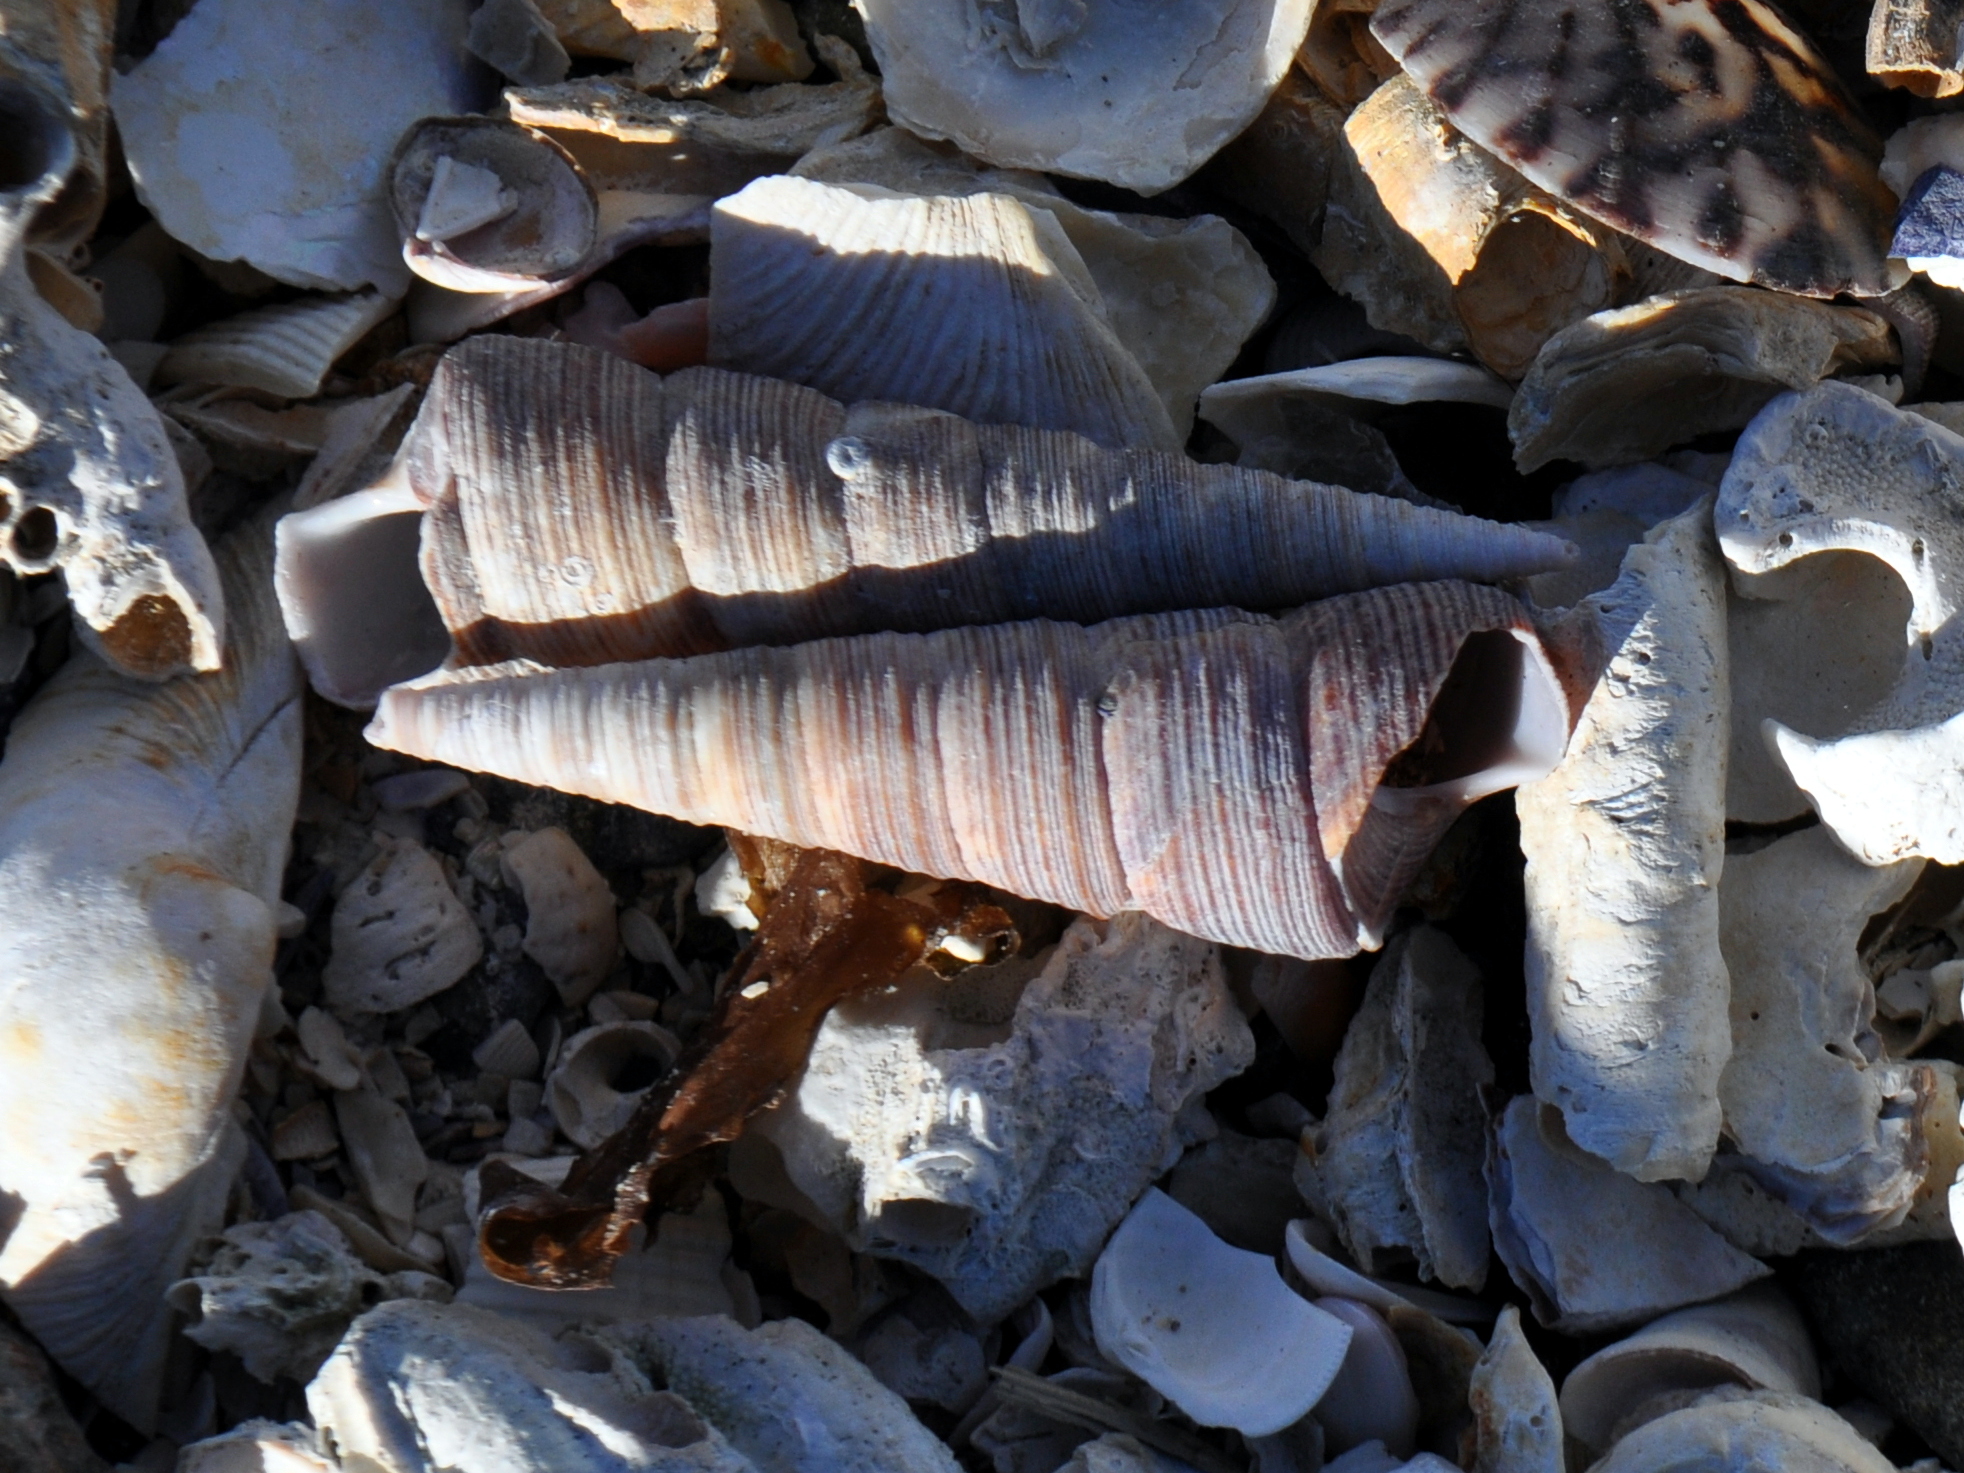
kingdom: Animalia
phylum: Mollusca
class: Gastropoda
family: Turritellidae
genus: Maoricolpus
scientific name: Maoricolpus roseus
